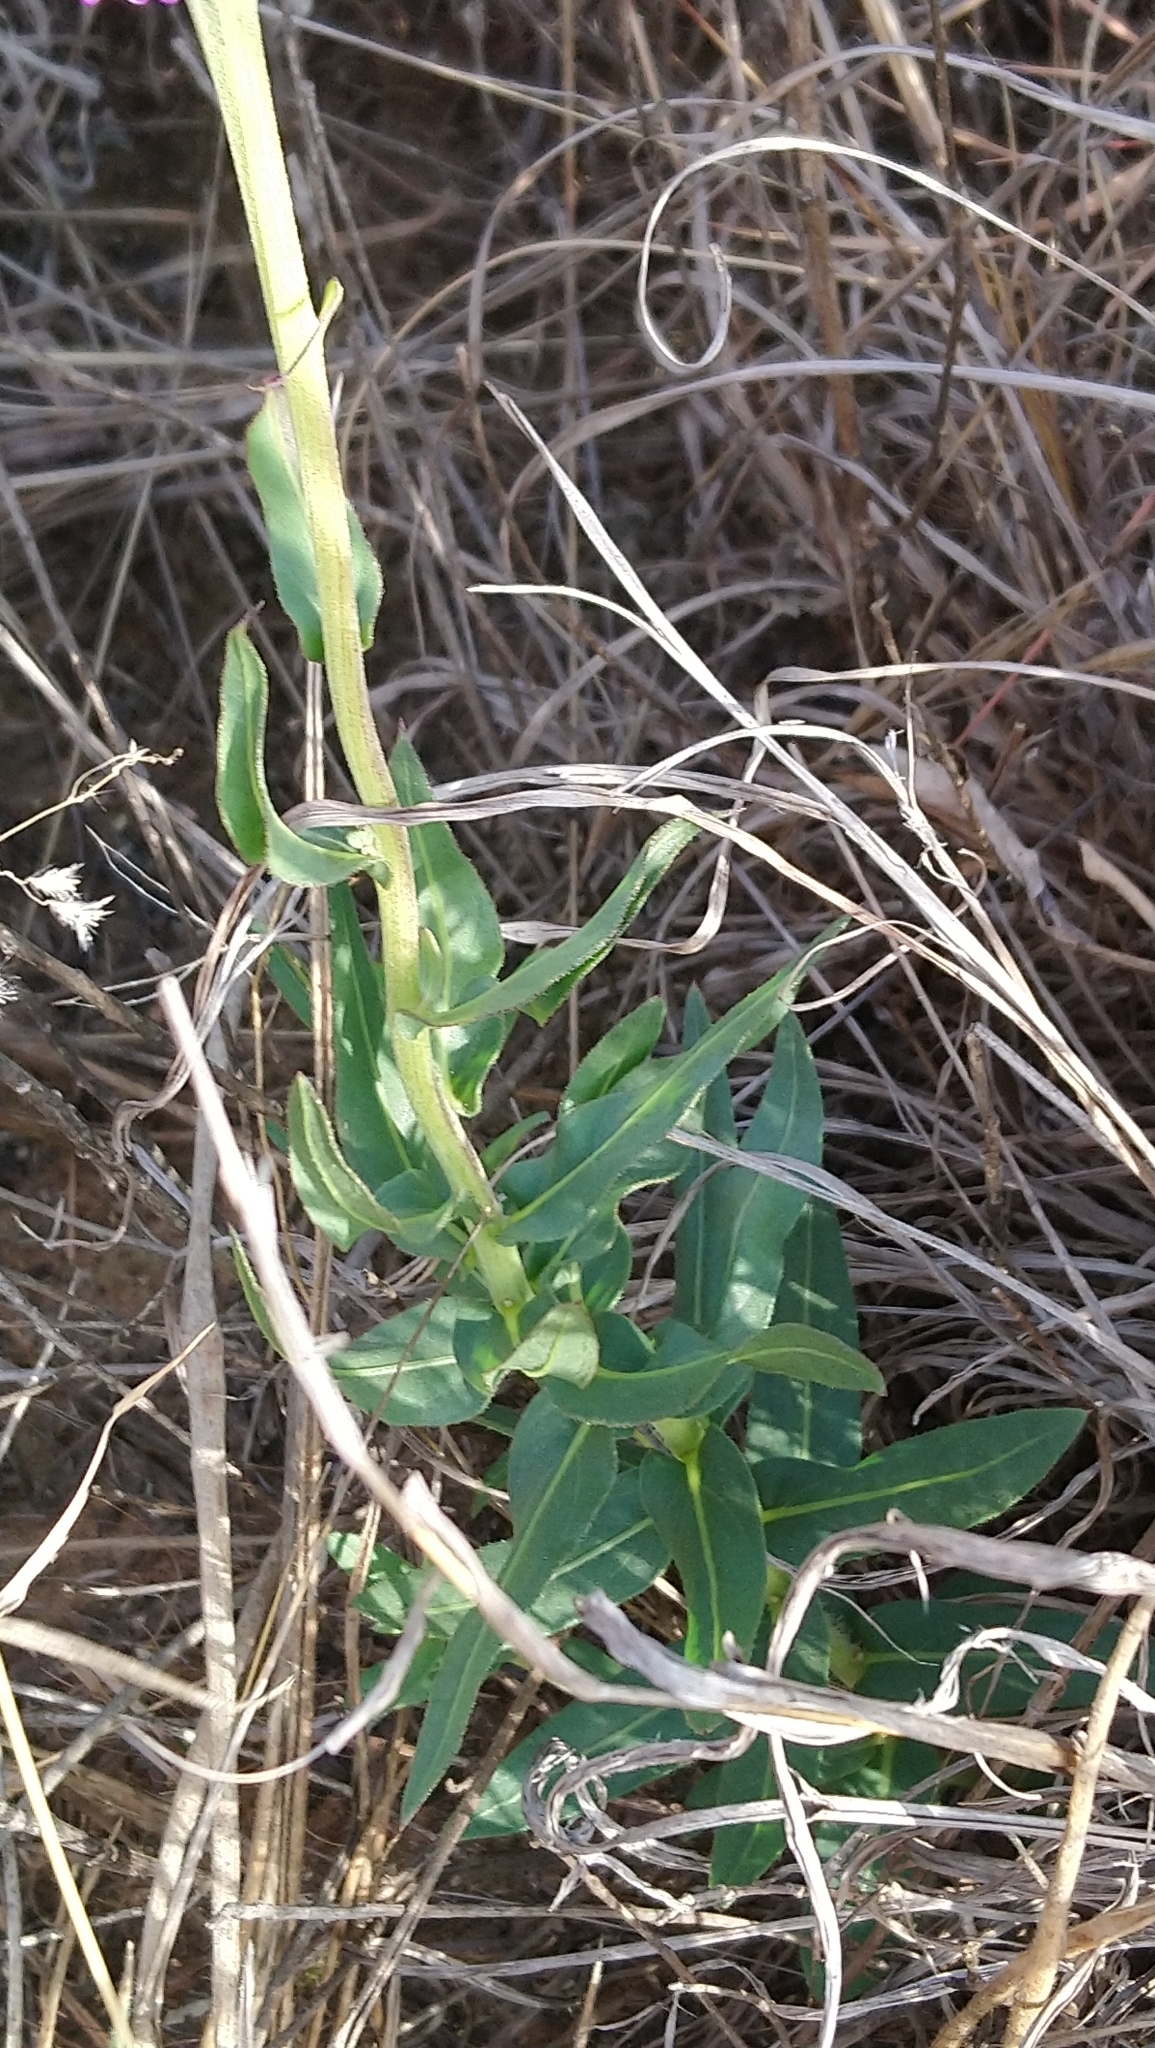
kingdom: Plantae
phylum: Tracheophyta
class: Magnoliopsida
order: Asterales
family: Asteraceae
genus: Pseudopegolettia
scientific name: Pseudopegolettia tenella
